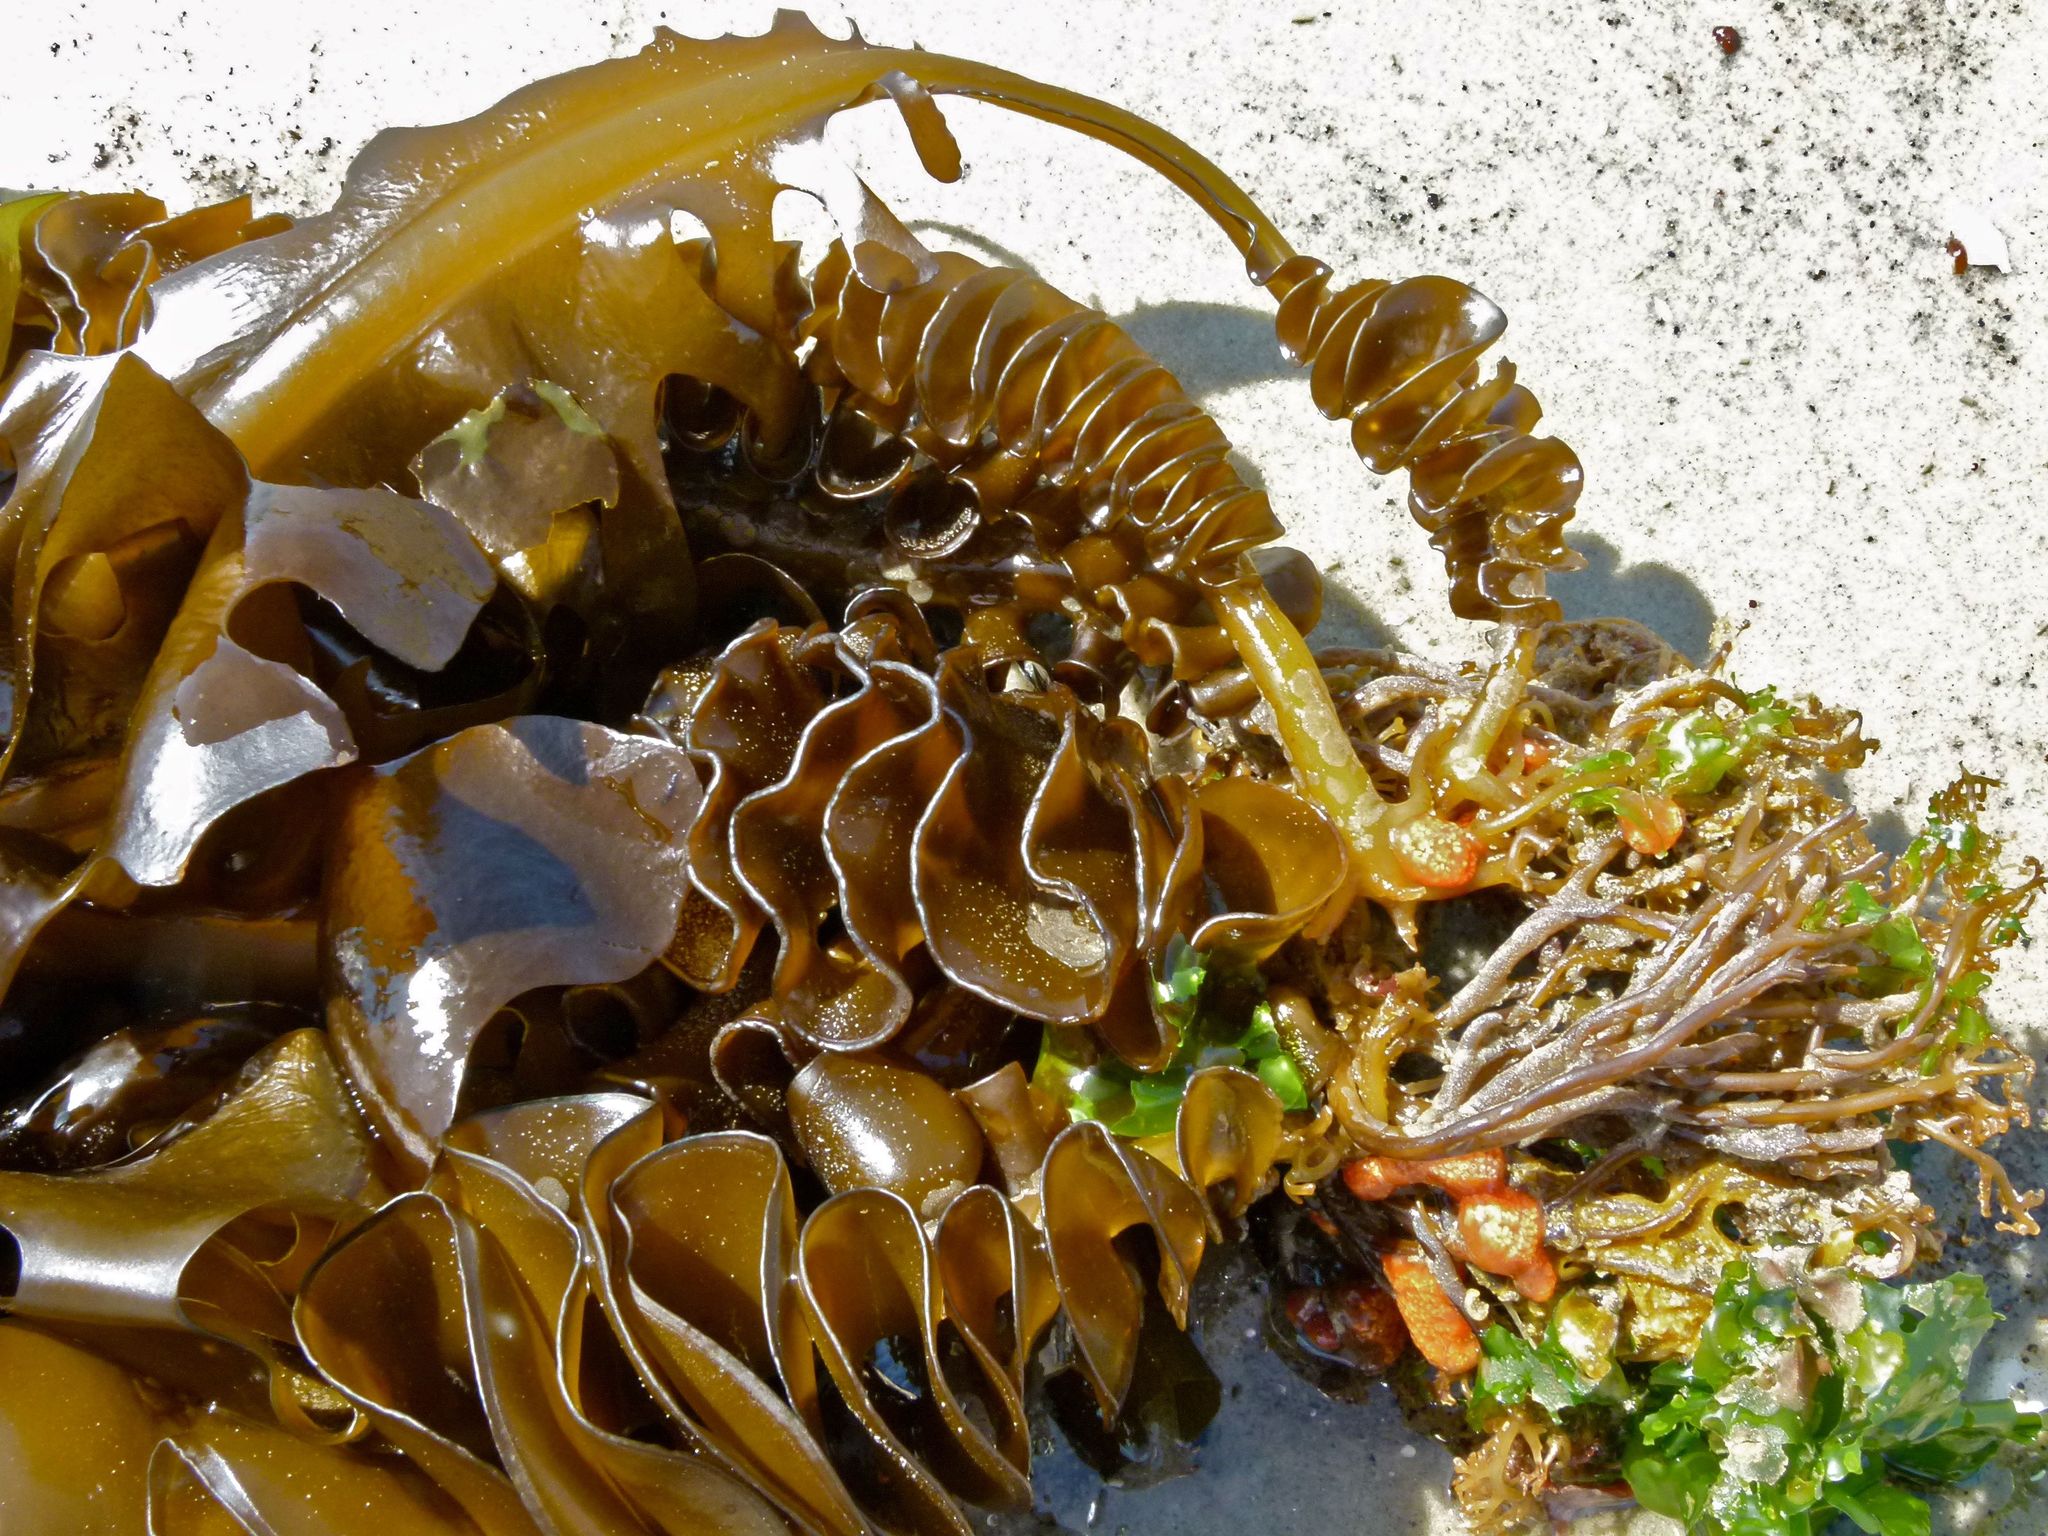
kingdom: Chromista
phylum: Ochrophyta
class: Phaeophyceae
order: Laminariales
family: Alariaceae
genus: Undaria
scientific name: Undaria pinnatifida
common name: Asian kelp
